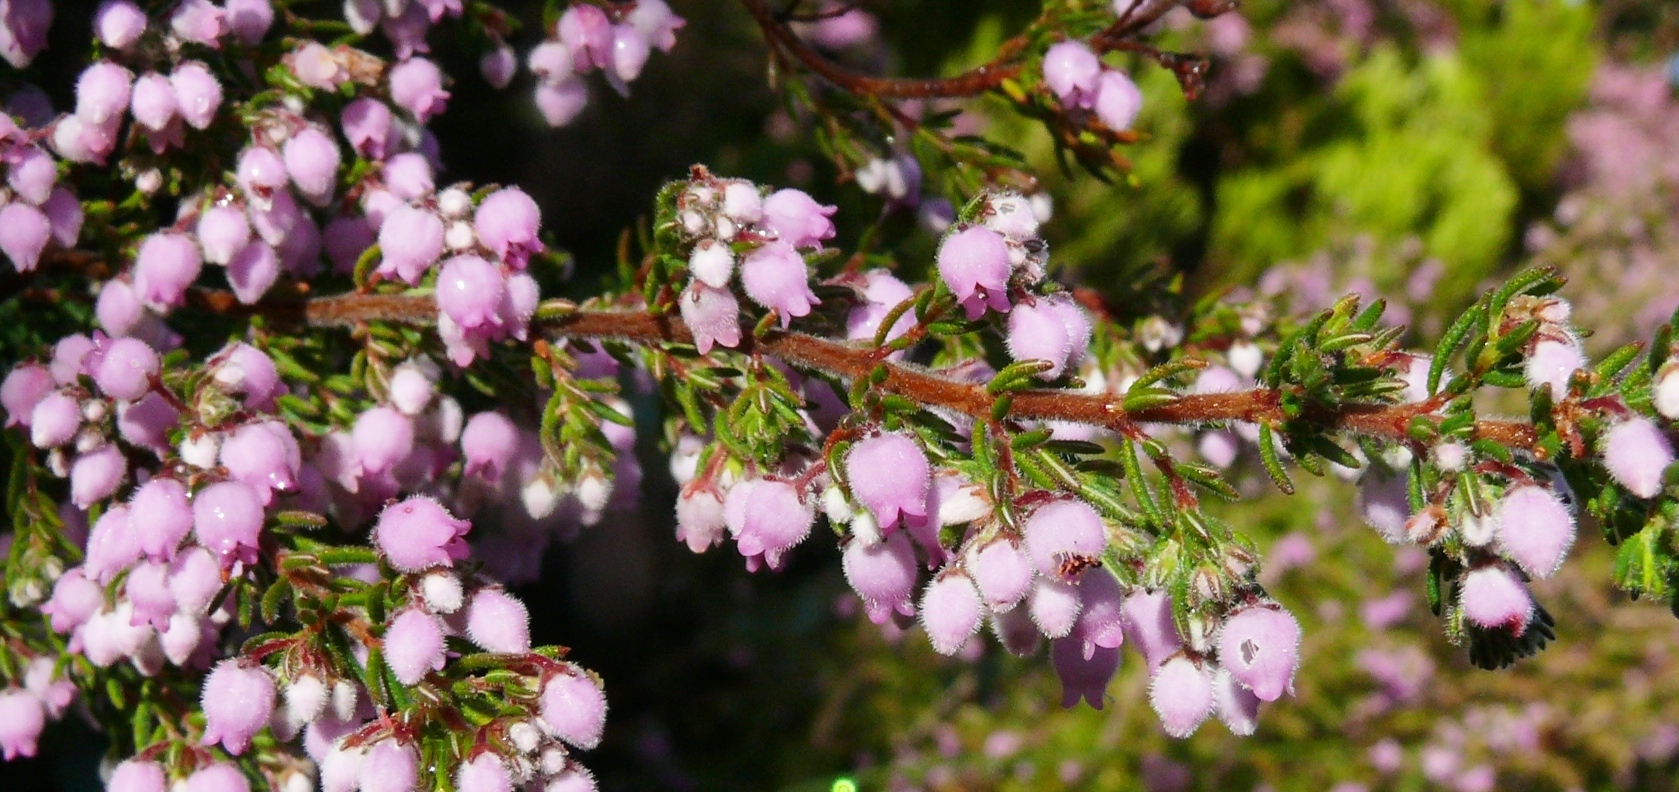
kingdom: Plantae
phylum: Tracheophyta
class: Magnoliopsida
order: Ericales
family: Ericaceae
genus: Erica
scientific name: Erica hirtiflora
